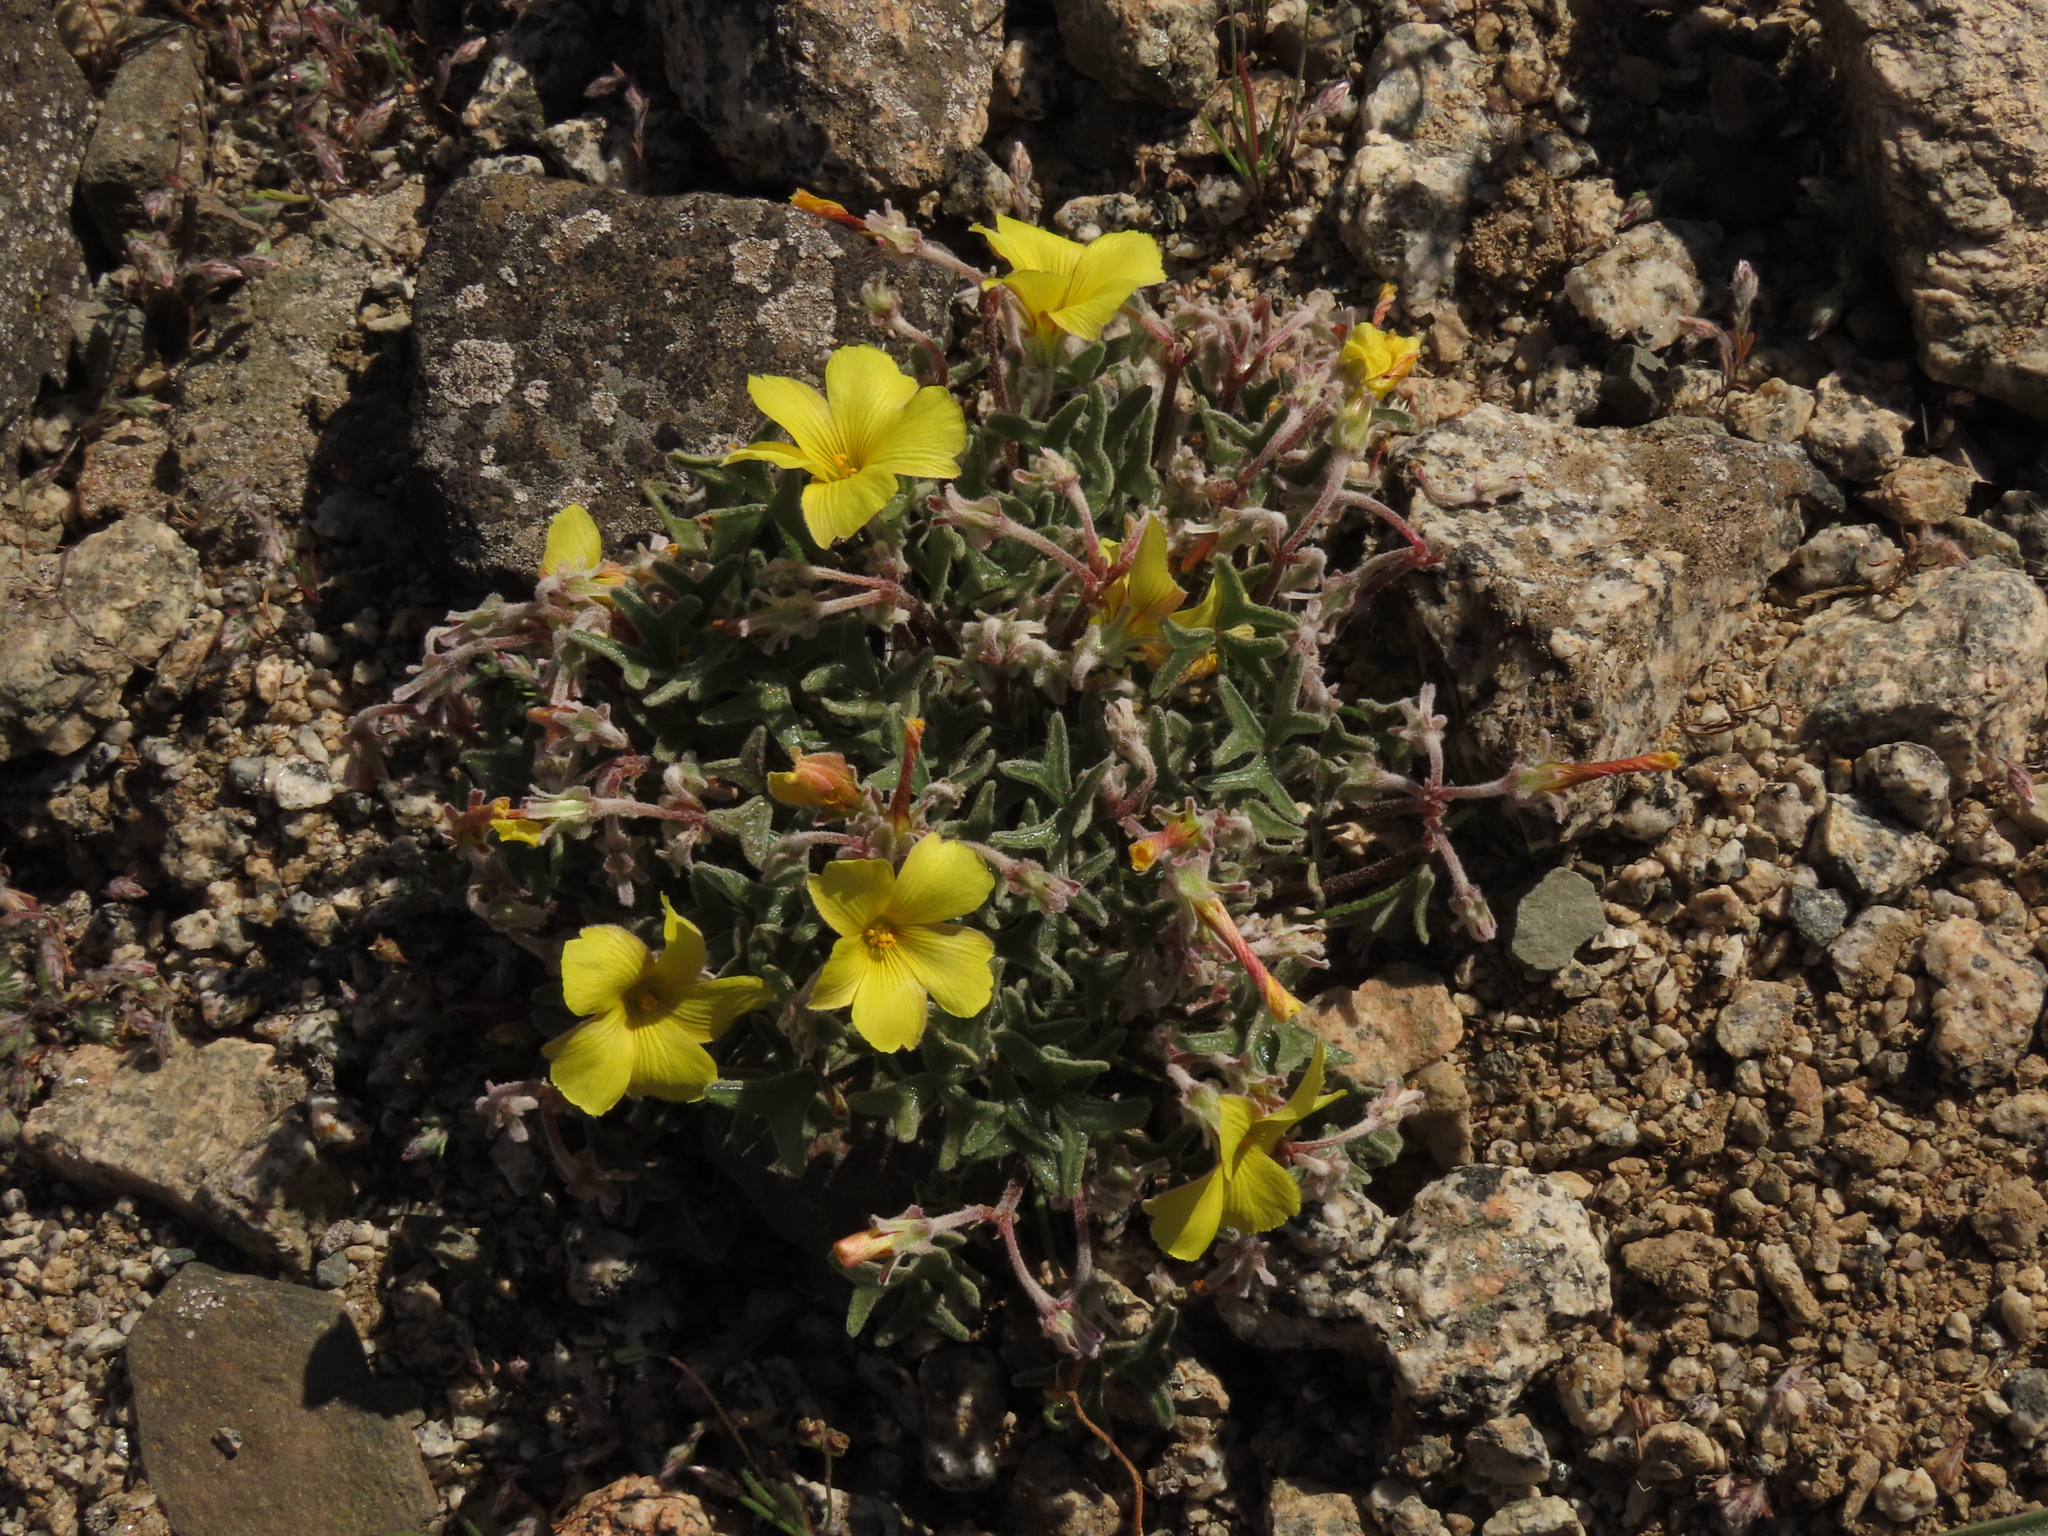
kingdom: Plantae
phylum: Tracheophyta
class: Magnoliopsida
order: Oxalidales
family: Oxalidaceae
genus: Oxalis
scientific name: Oxalis leucophylla
